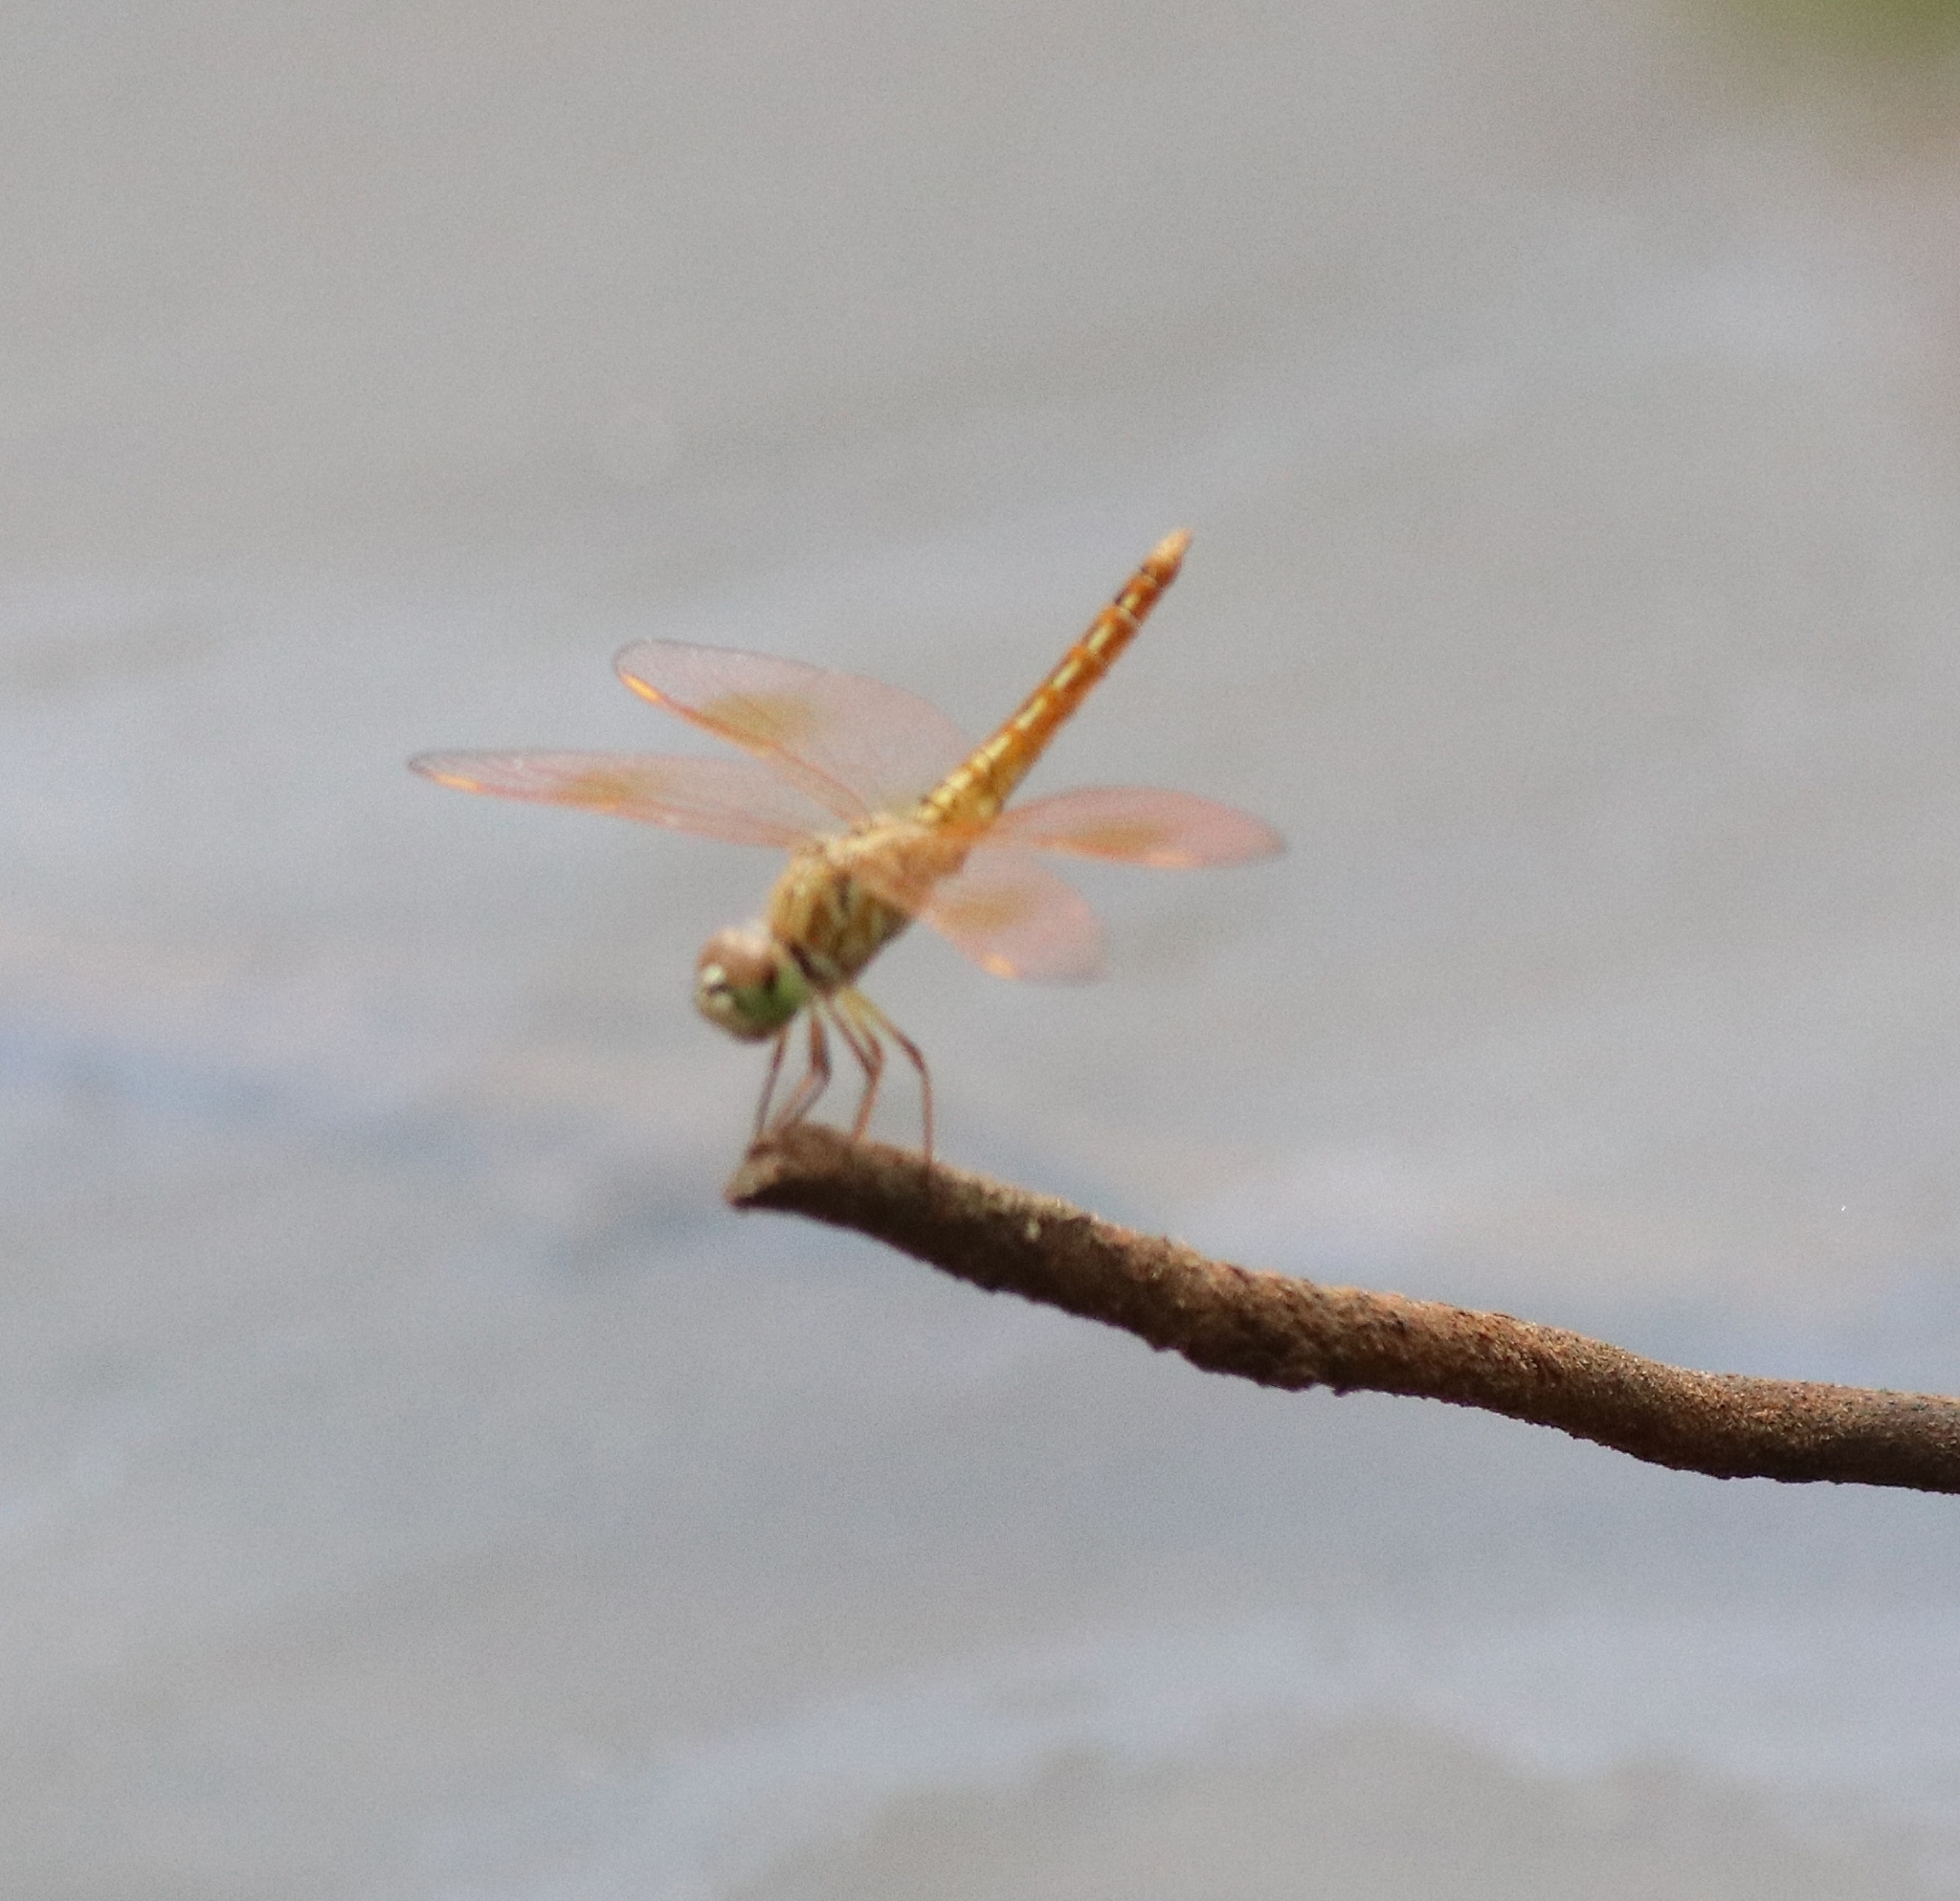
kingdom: Animalia
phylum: Arthropoda
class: Insecta
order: Odonata
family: Libellulidae
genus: Brachythemis
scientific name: Brachythemis contaminata
